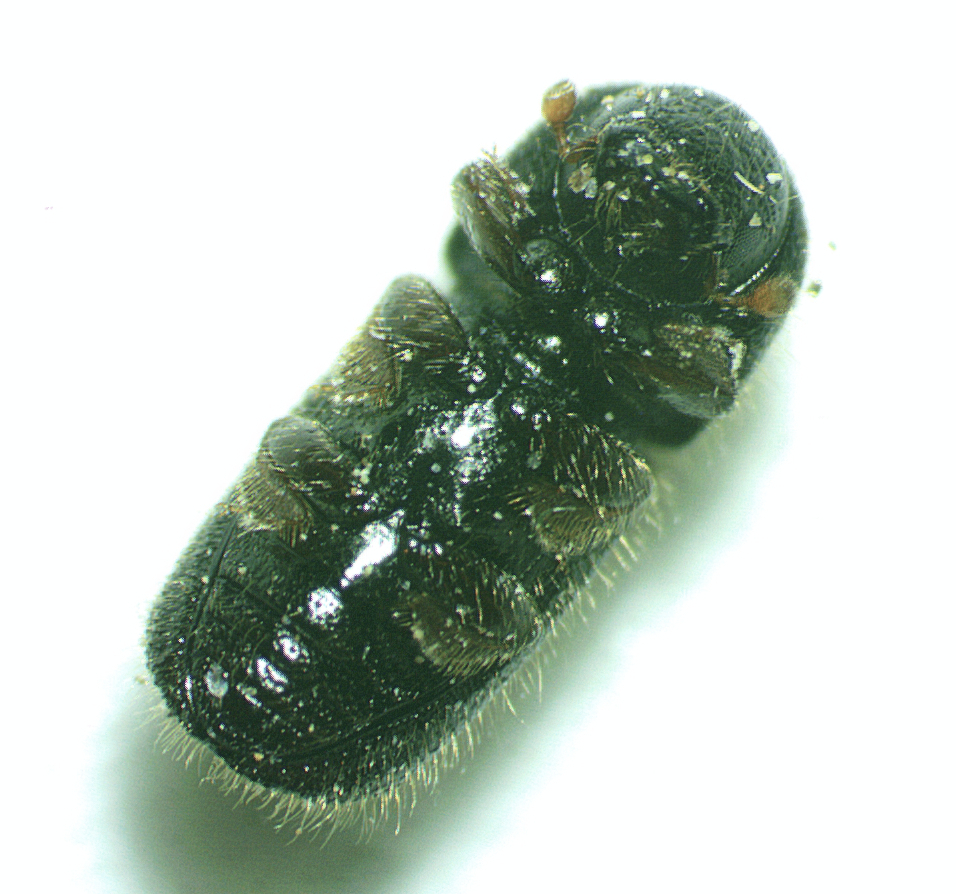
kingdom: Animalia
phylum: Arthropoda
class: Insecta
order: Coleoptera
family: Curculionidae
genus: Xyleborus
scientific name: Xyleborus atratus
